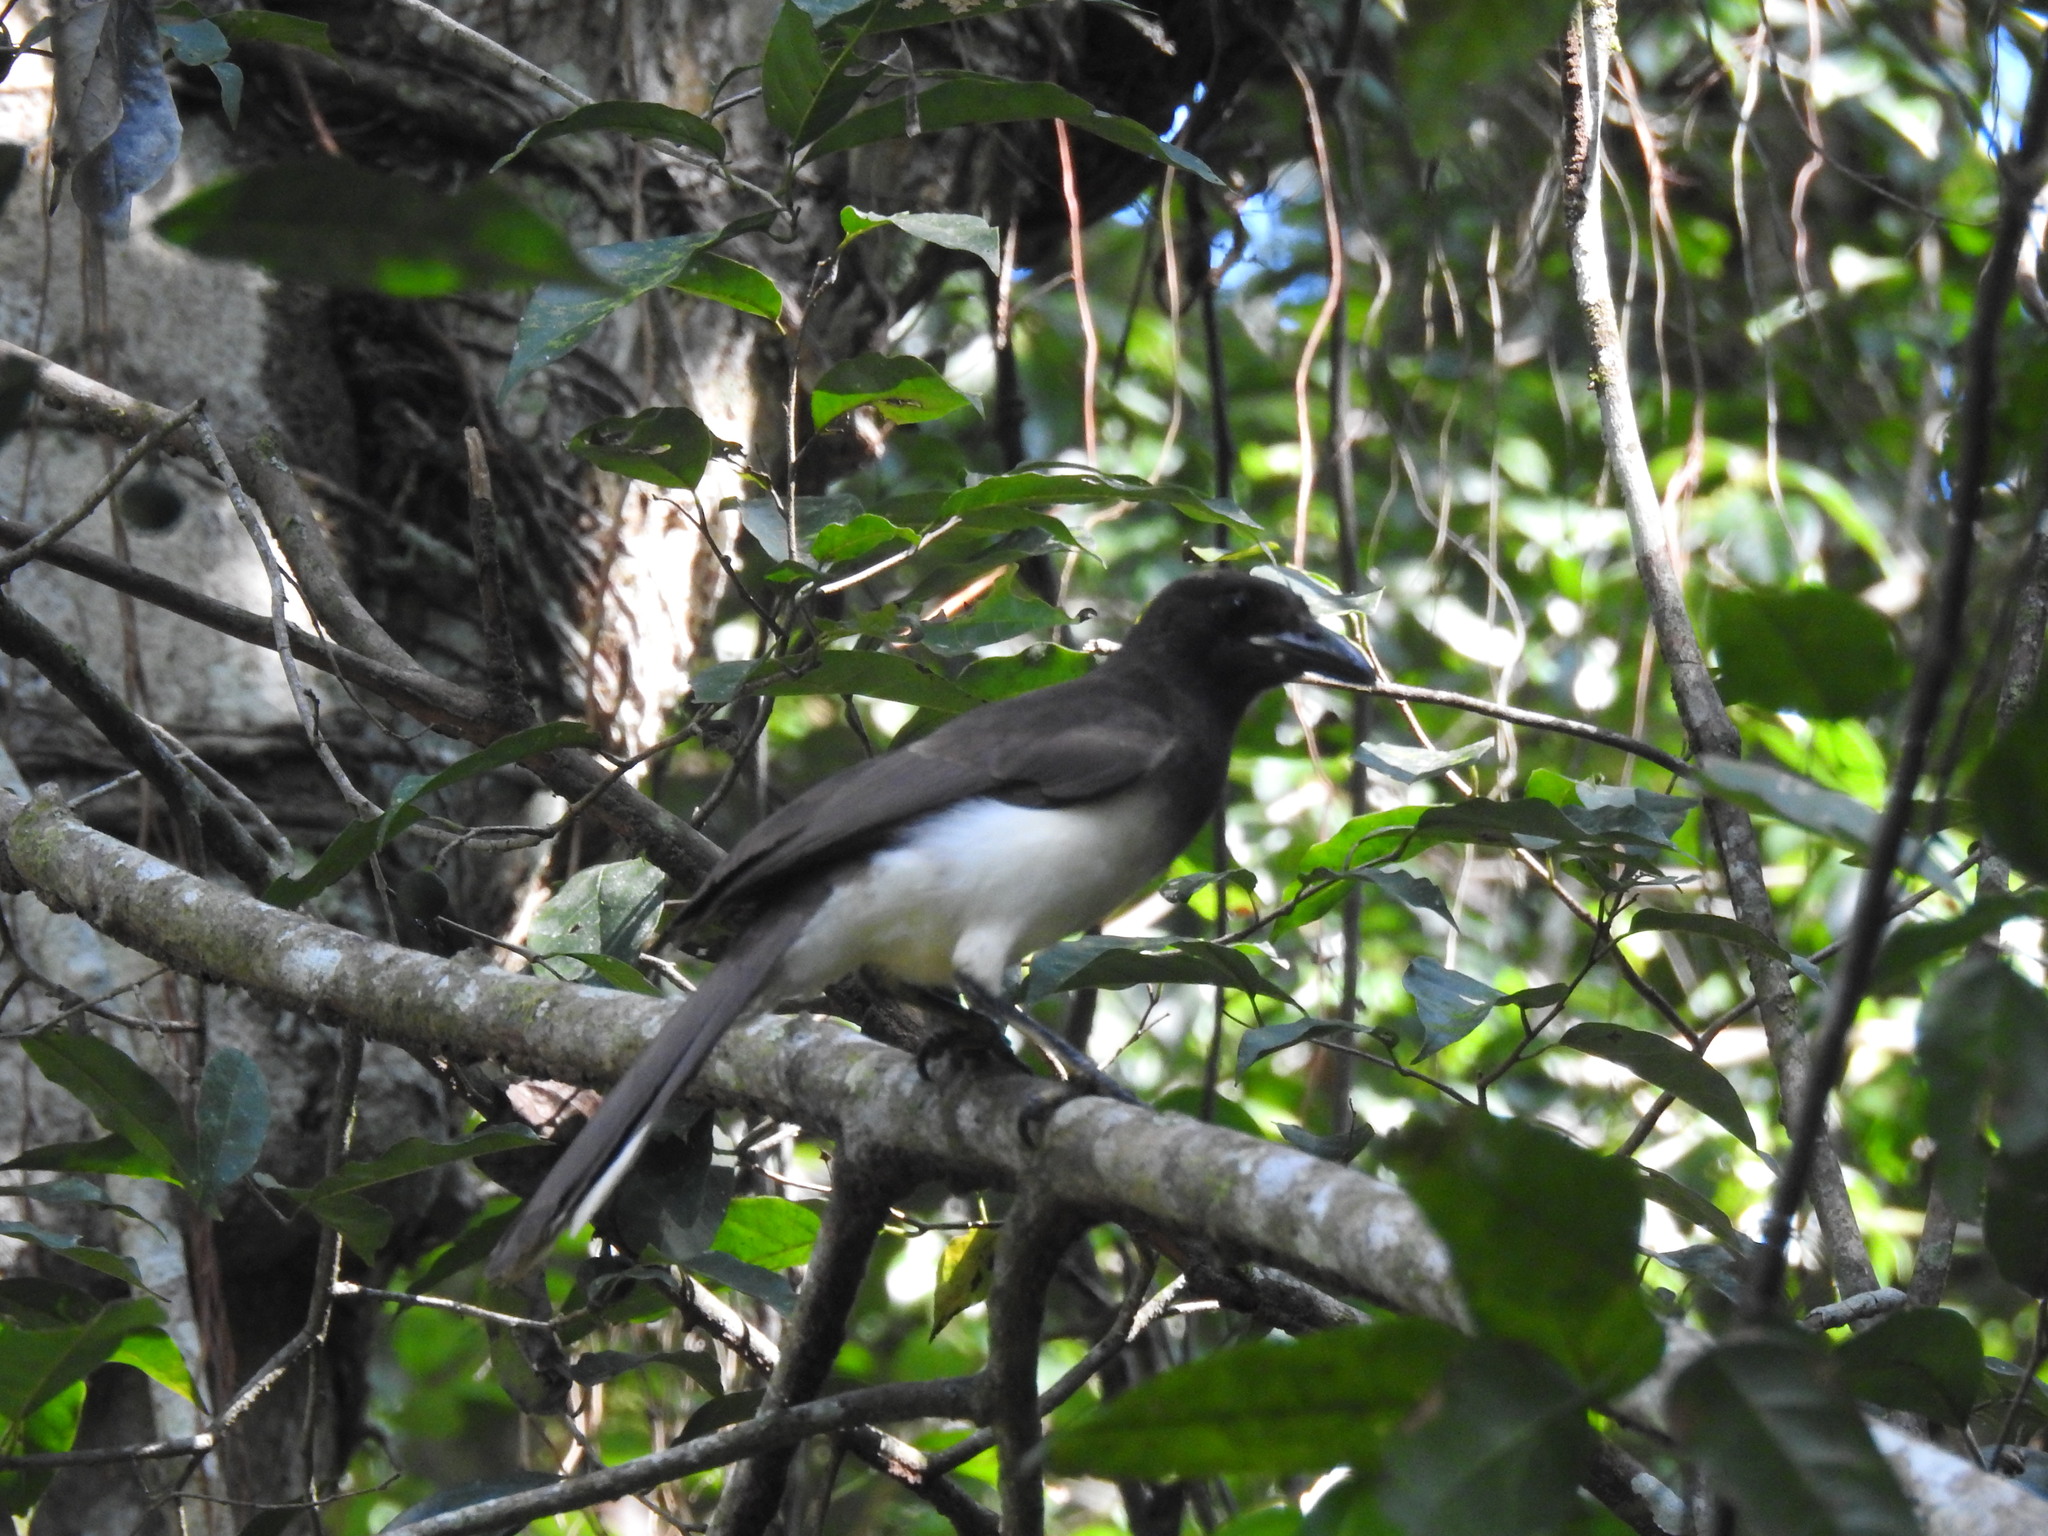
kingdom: Animalia
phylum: Chordata
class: Aves
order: Passeriformes
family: Corvidae
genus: Psilorhinus
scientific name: Psilorhinus morio
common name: Brown jay
